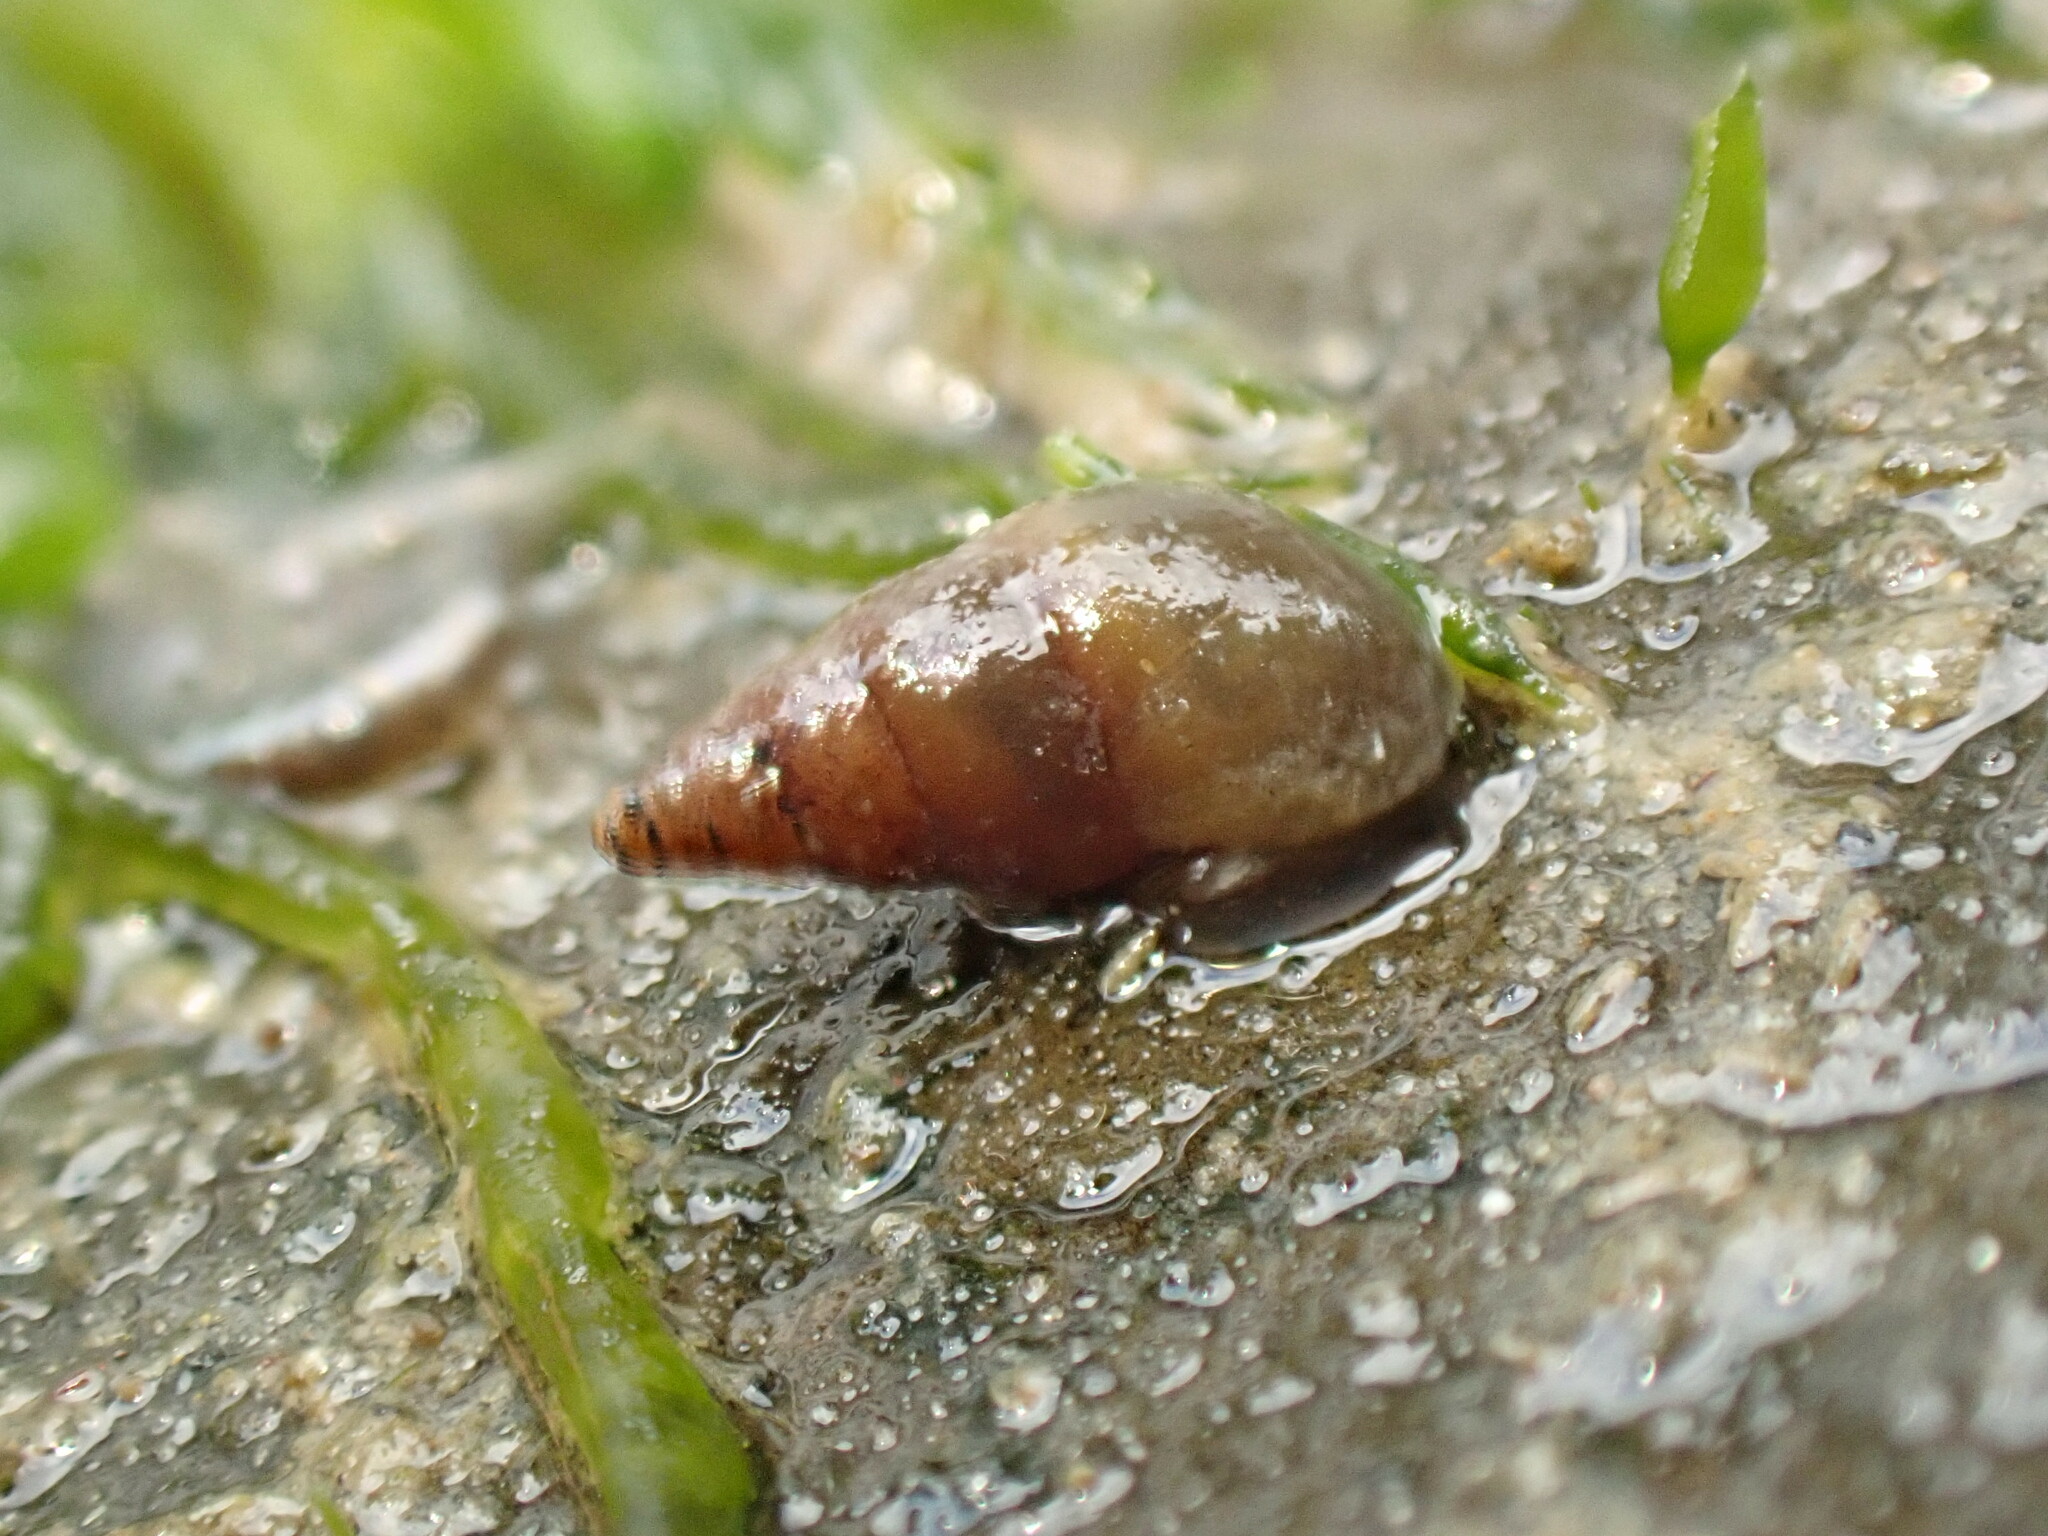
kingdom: Animalia
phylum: Mollusca
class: Gastropoda
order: Littorinimorpha
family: Tateidae
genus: Potamopyrgus
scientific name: Potamopyrgus estuarinus
